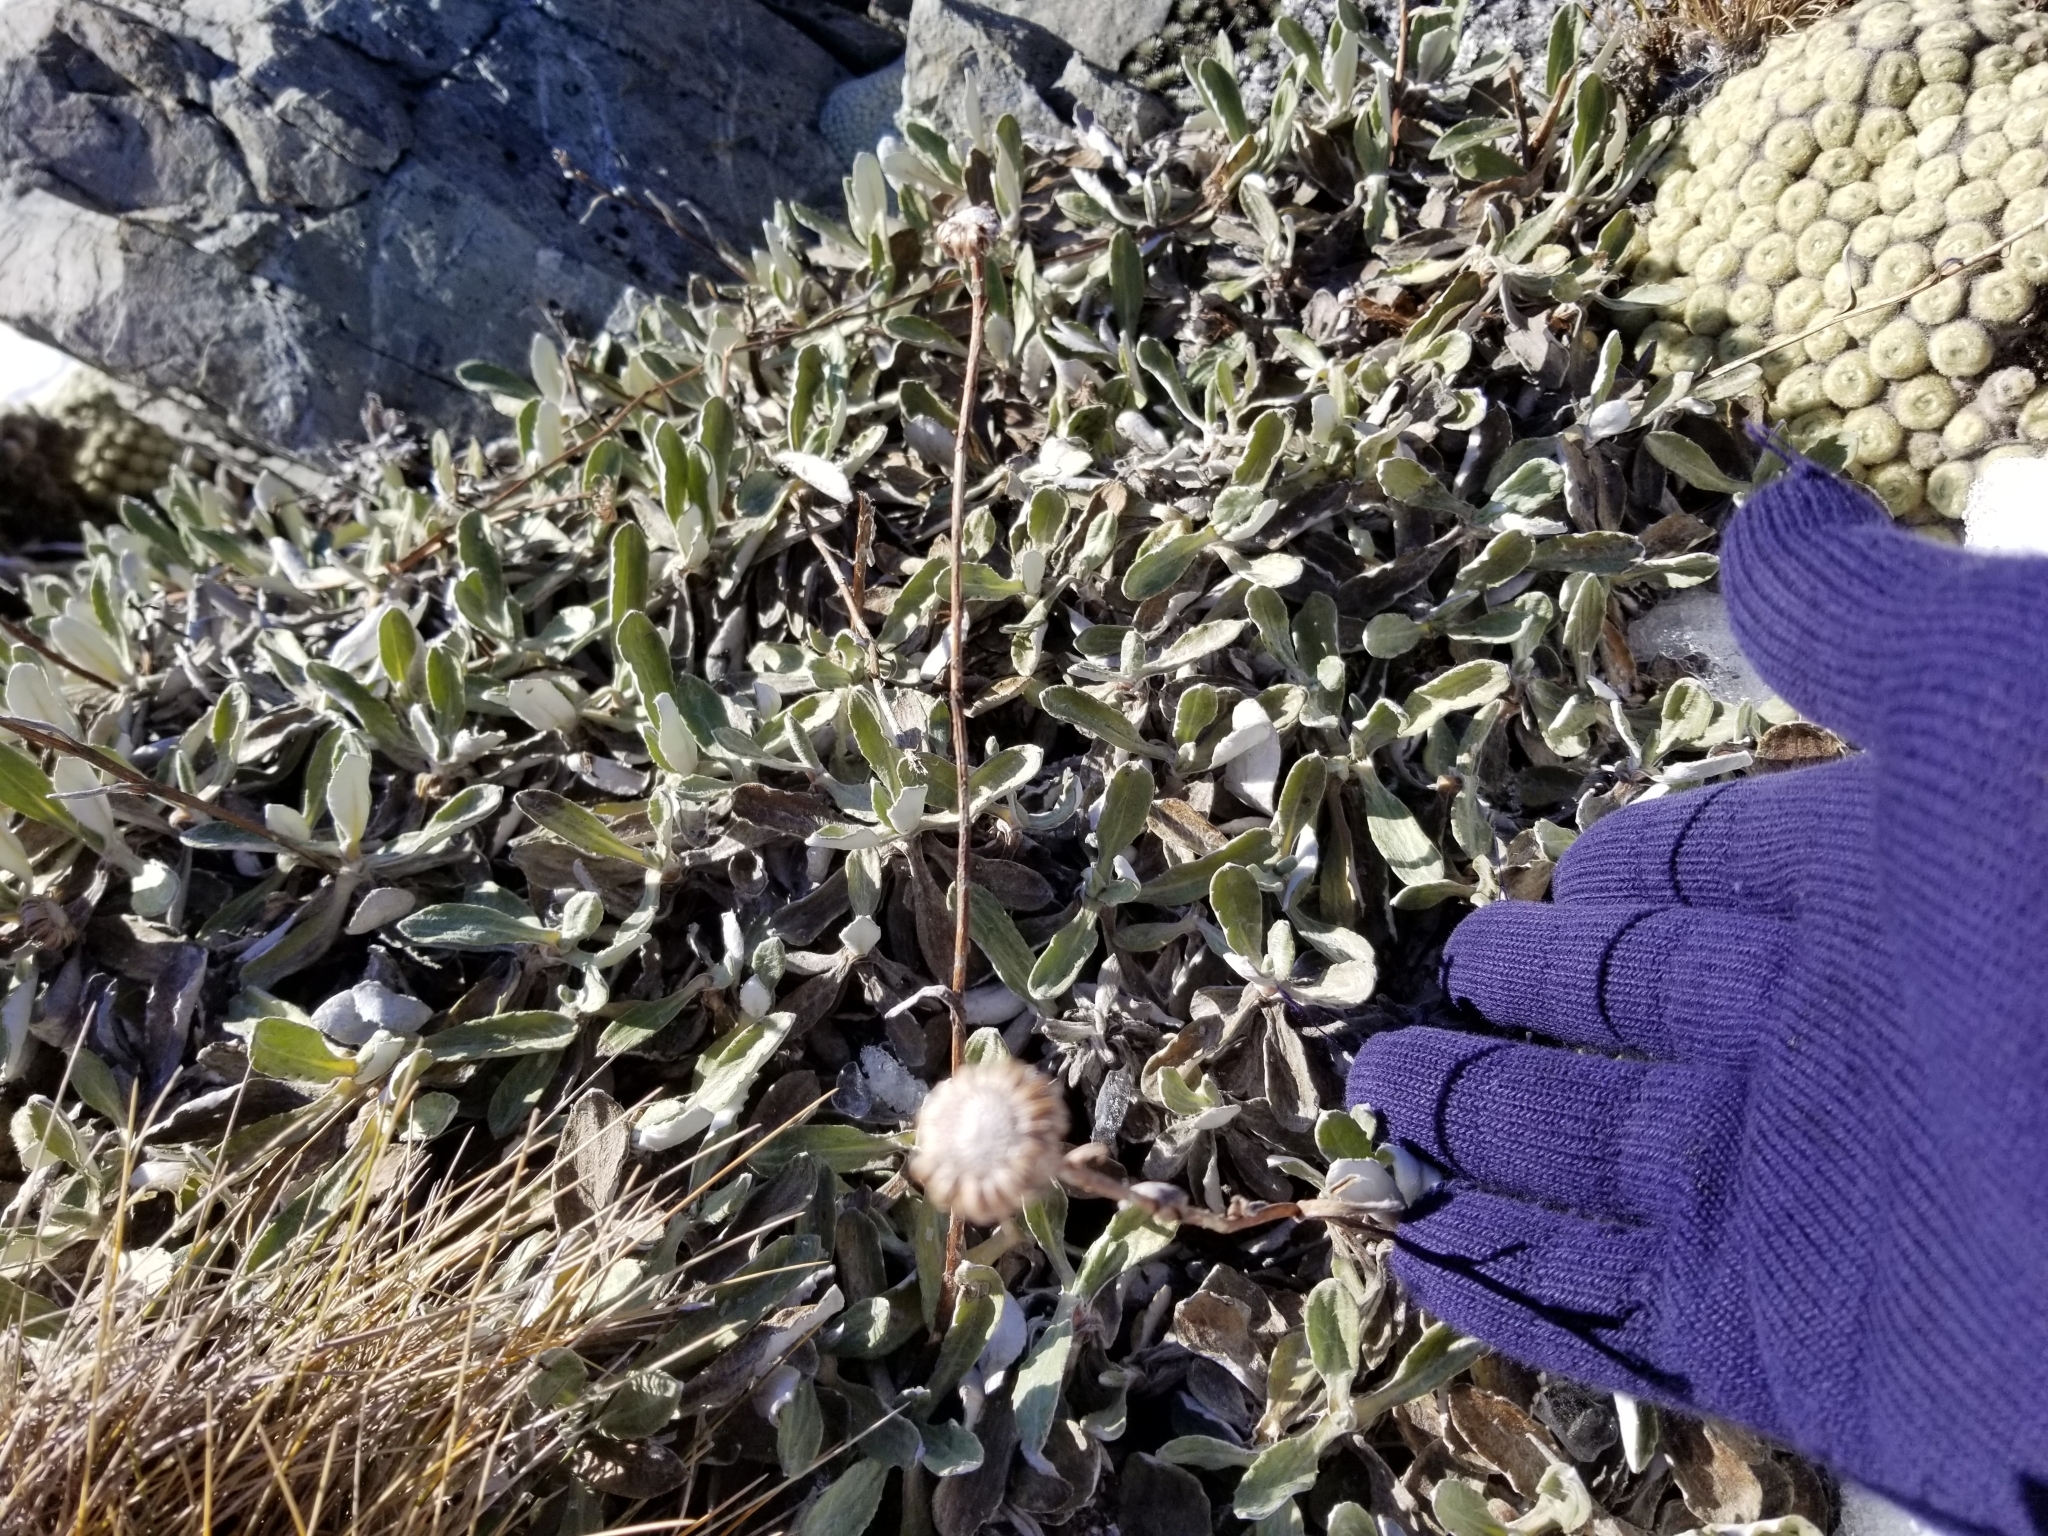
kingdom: Plantae
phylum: Tracheophyta
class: Magnoliopsida
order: Asterales
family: Asteraceae
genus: Celmisia
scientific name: Celmisia allanii
